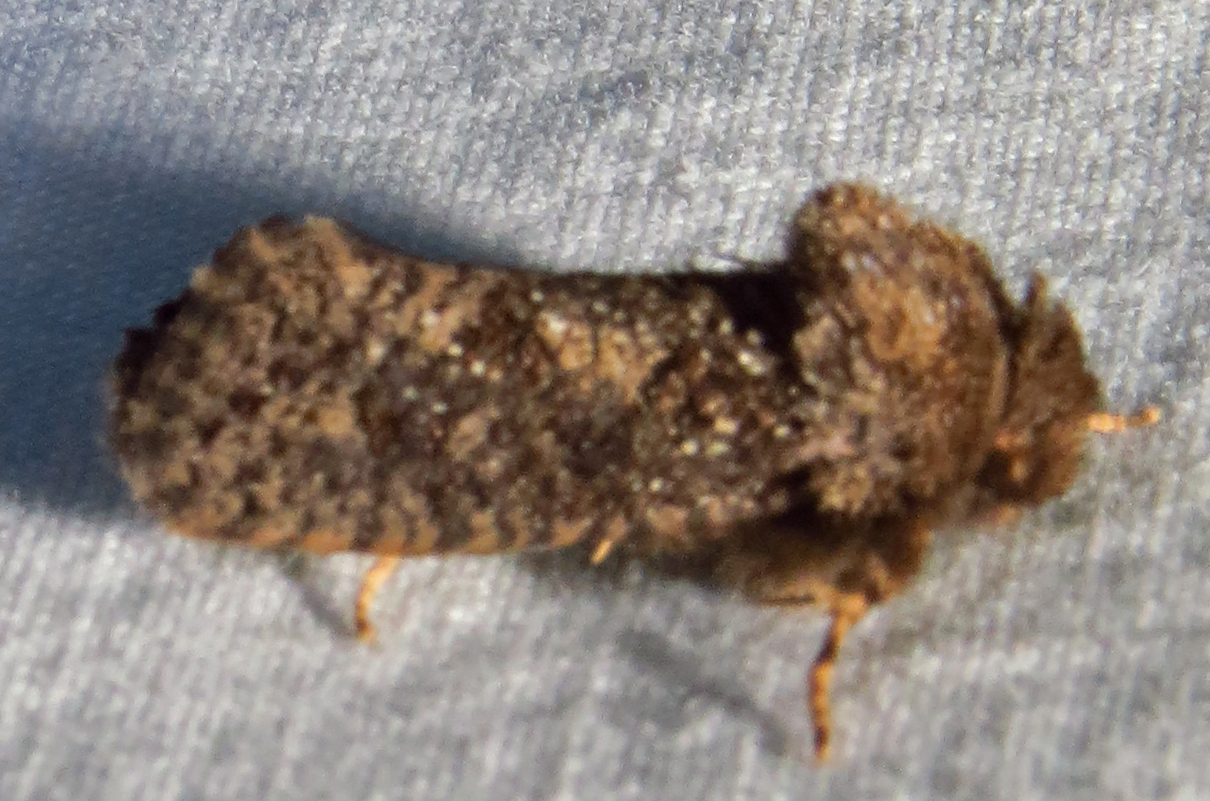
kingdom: Animalia
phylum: Arthropoda
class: Insecta
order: Lepidoptera
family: Tineidae
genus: Acrolophus
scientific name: Acrolophus arcanella
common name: Arcane grass tubeworm moth
